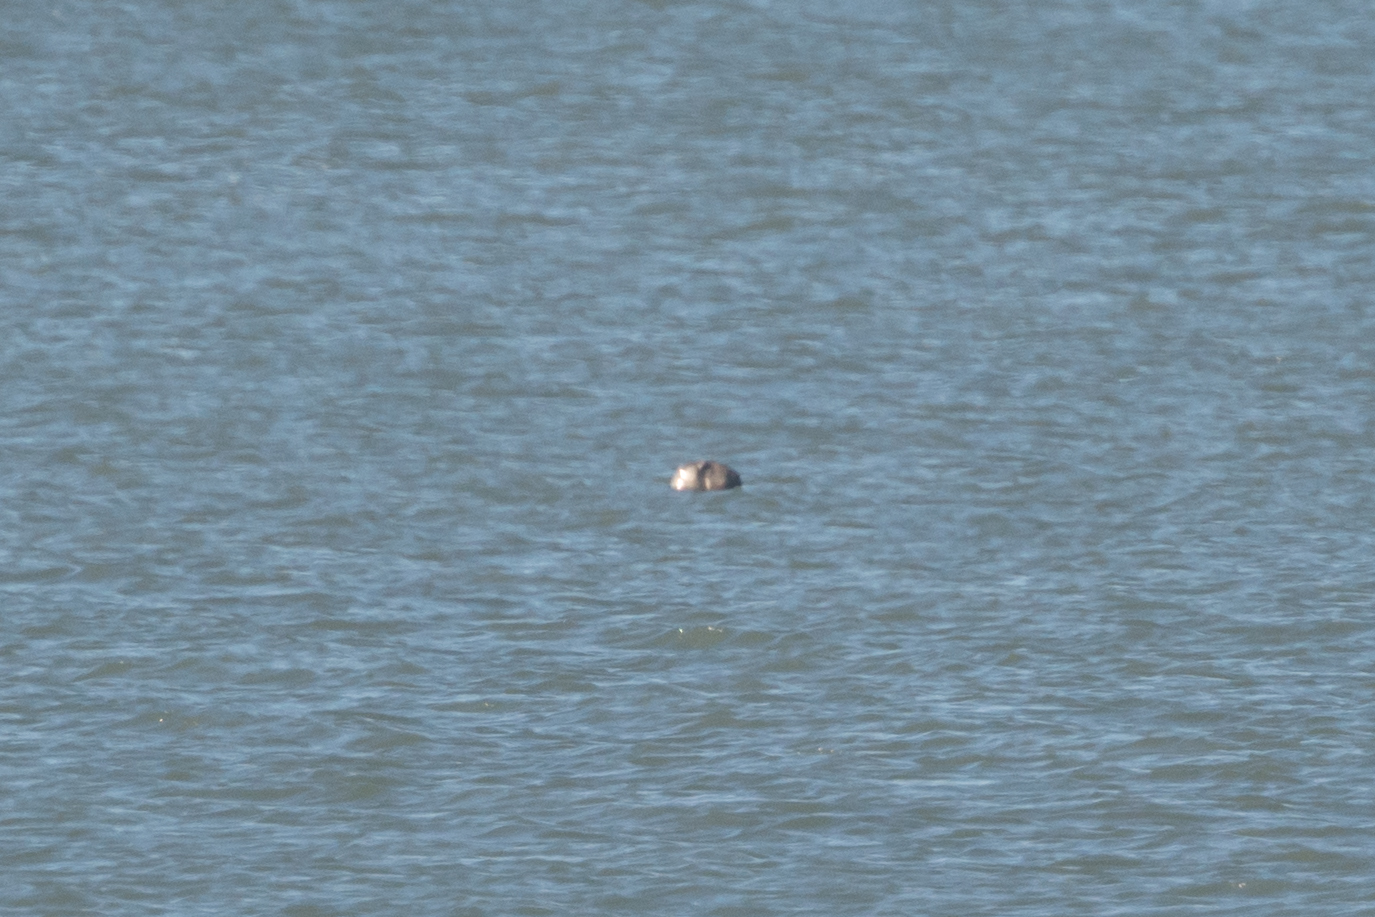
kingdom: Animalia
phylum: Chordata
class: Mammalia
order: Carnivora
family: Phocidae
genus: Halichoerus
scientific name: Halichoerus grypus
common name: Grey seal
